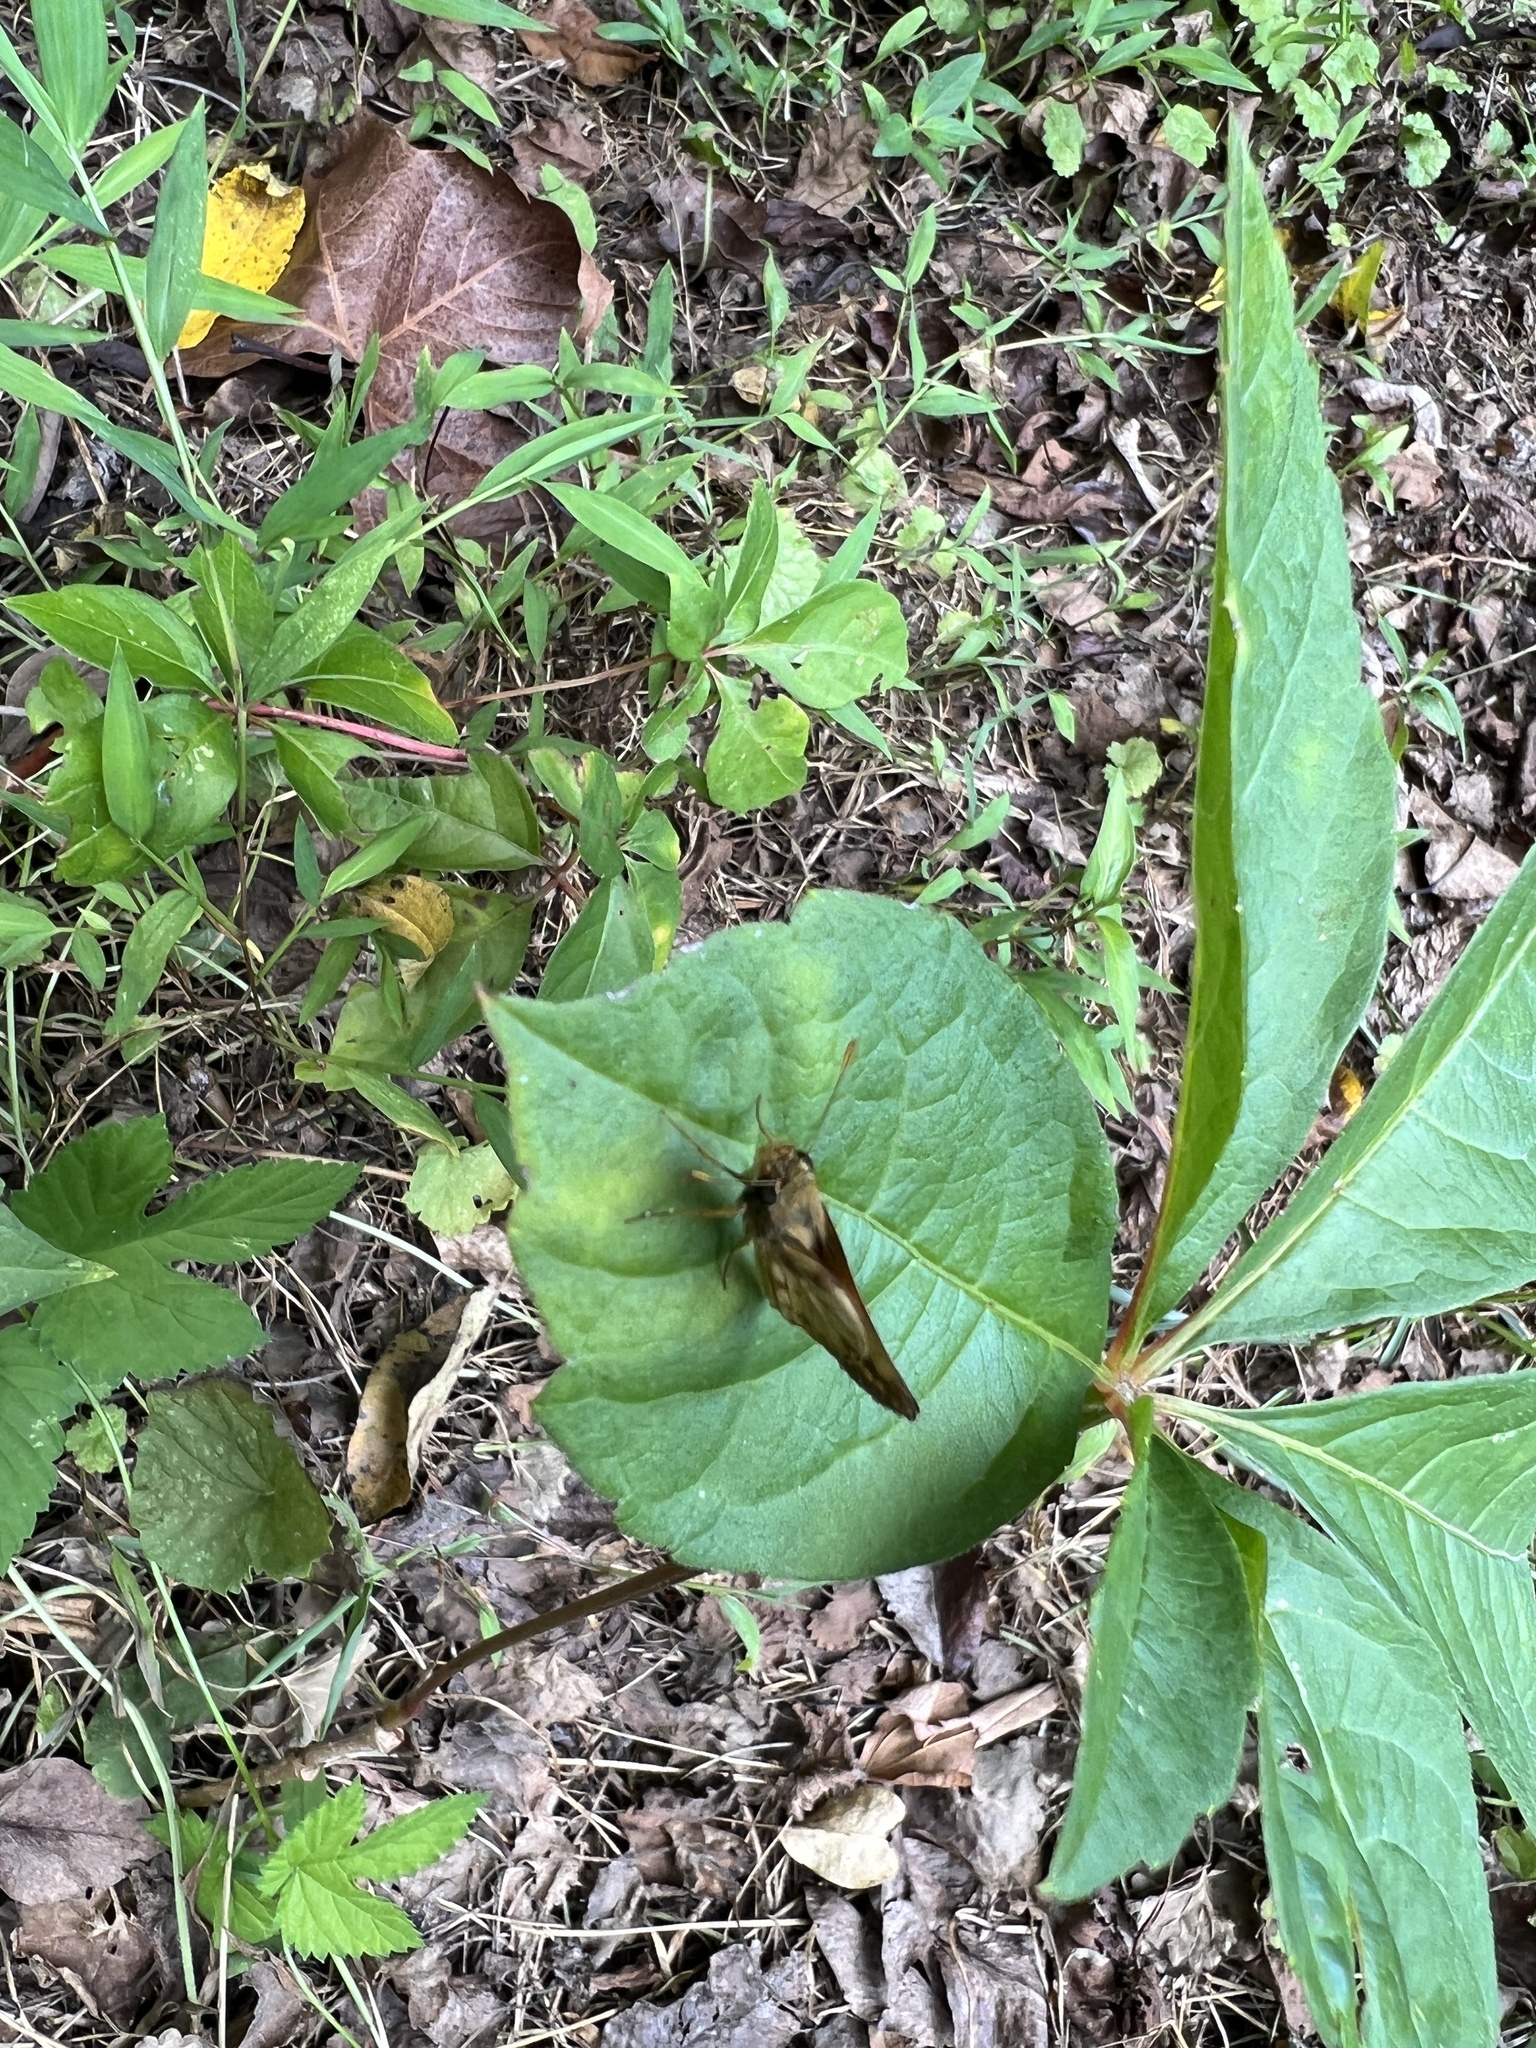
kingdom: Animalia
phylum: Arthropoda
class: Insecta
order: Lepidoptera
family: Hesperiidae
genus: Lon
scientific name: Lon zabulon
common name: Zabulon skipper
